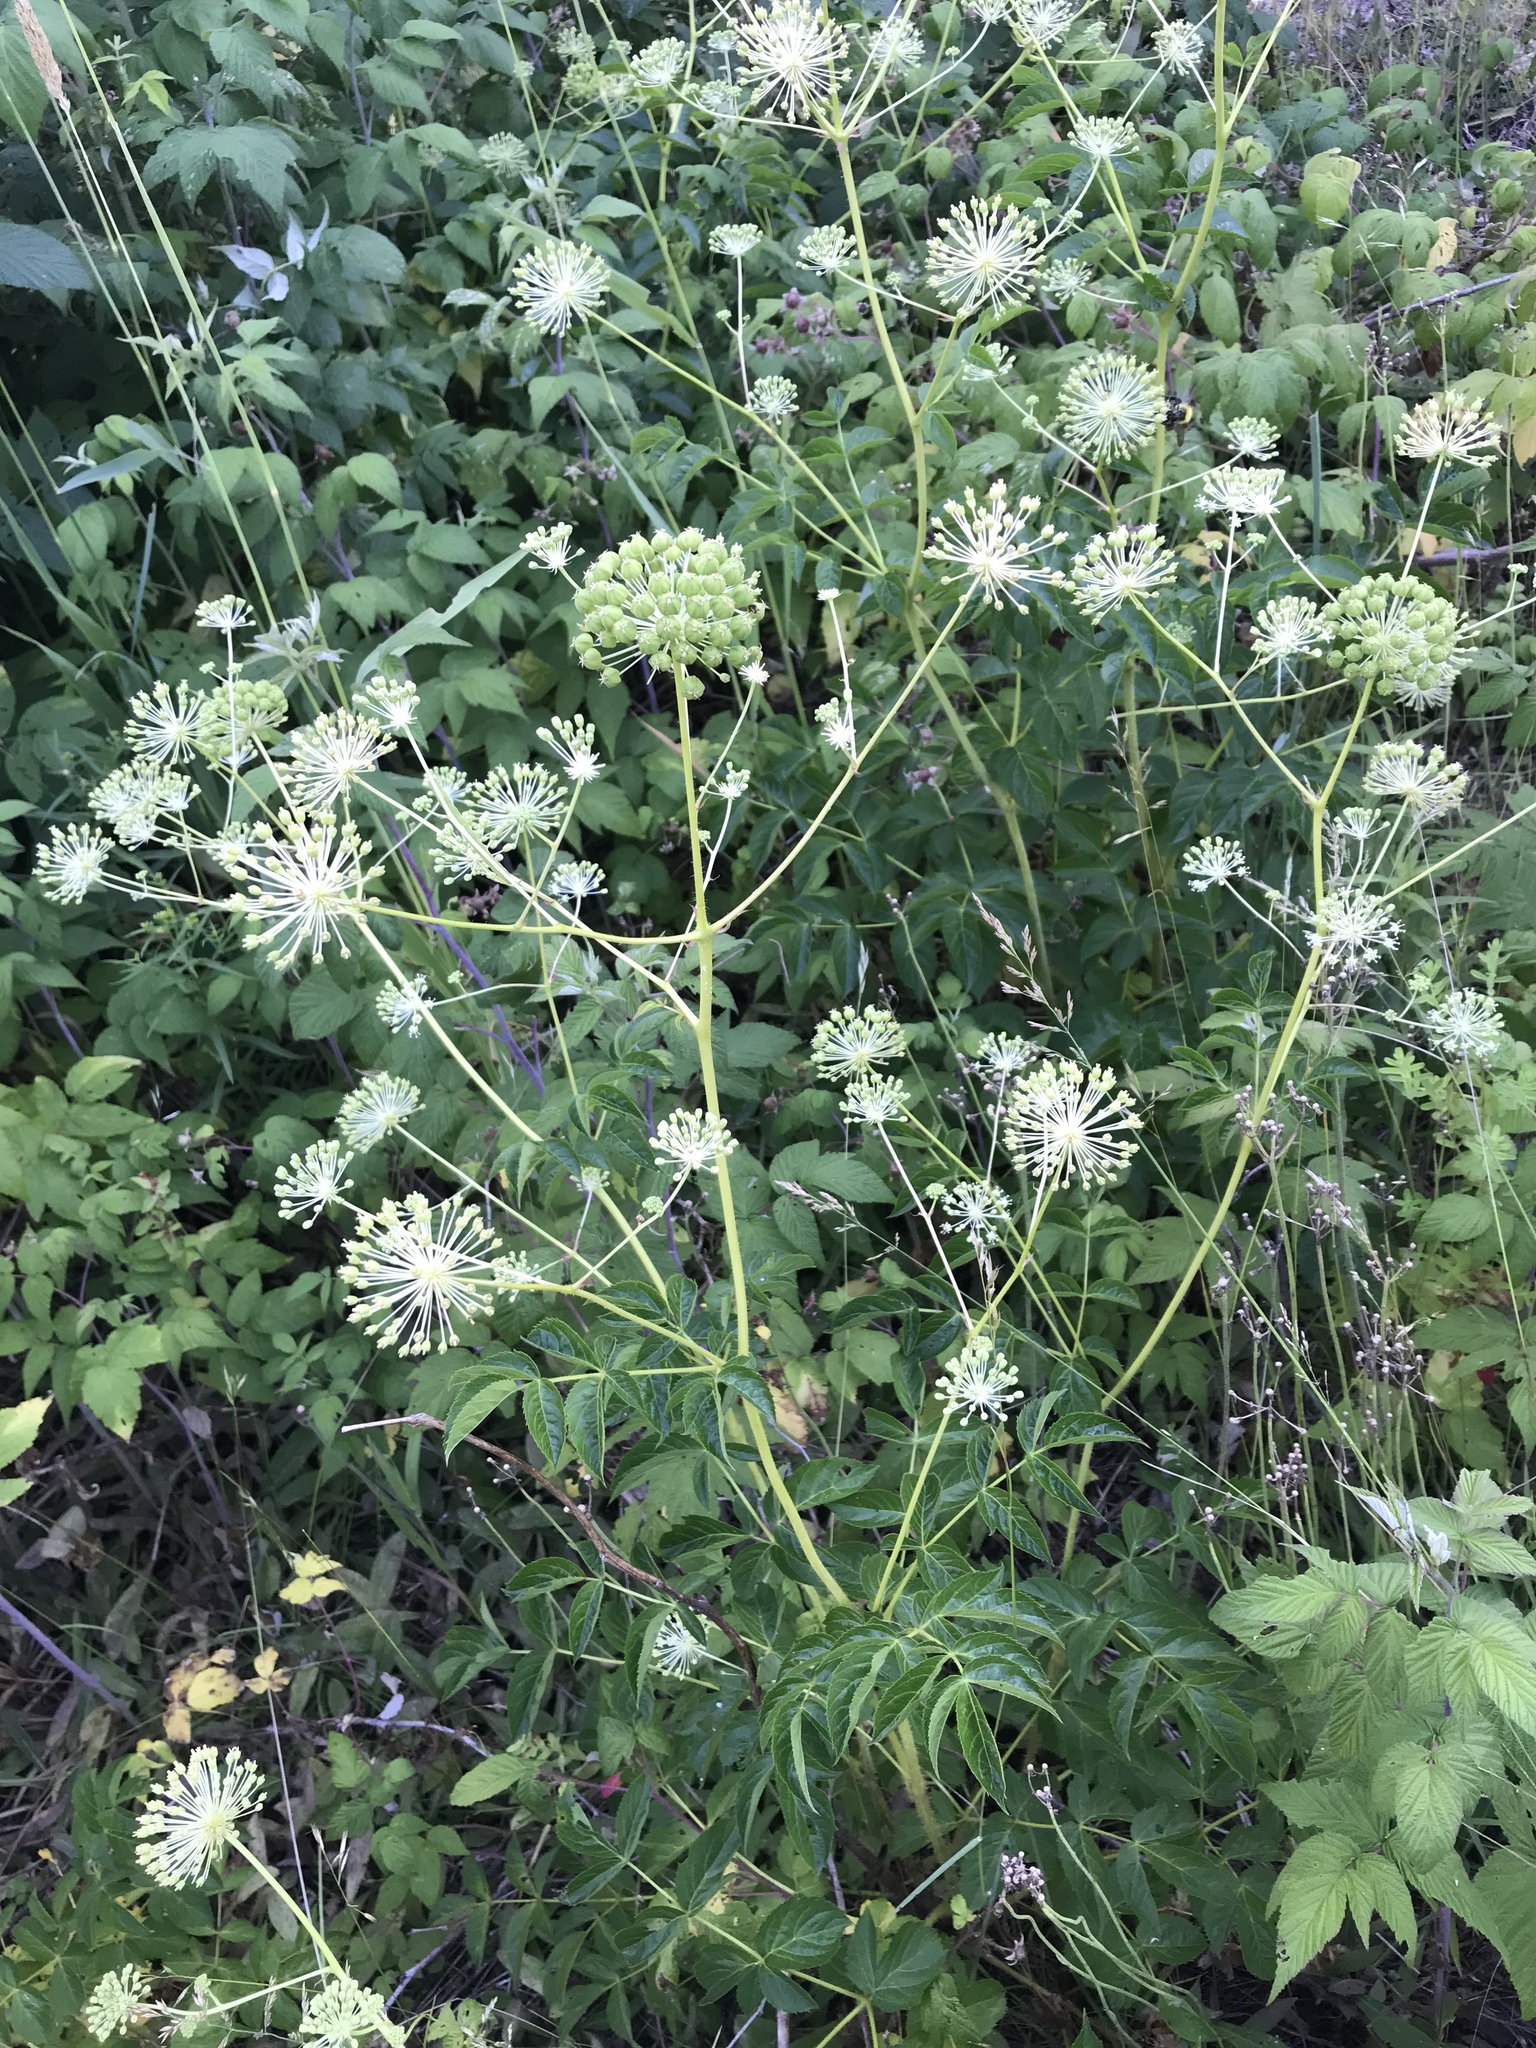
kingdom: Plantae
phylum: Tracheophyta
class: Magnoliopsida
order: Apiales
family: Araliaceae
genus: Aralia
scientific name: Aralia hispida
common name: Bristly sarsaparilla
